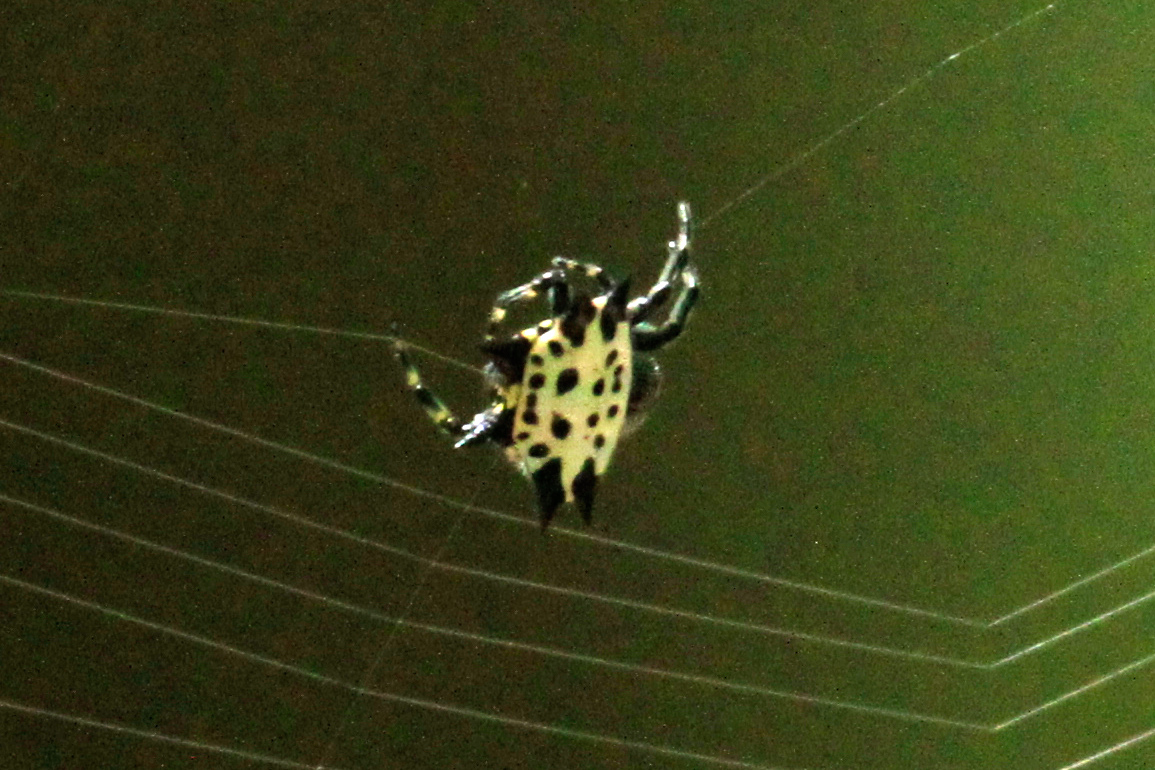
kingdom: Animalia
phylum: Arthropoda
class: Arachnida
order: Araneae
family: Araneidae
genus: Gasteracantha
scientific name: Gasteracantha cancriformis
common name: Orb weavers
